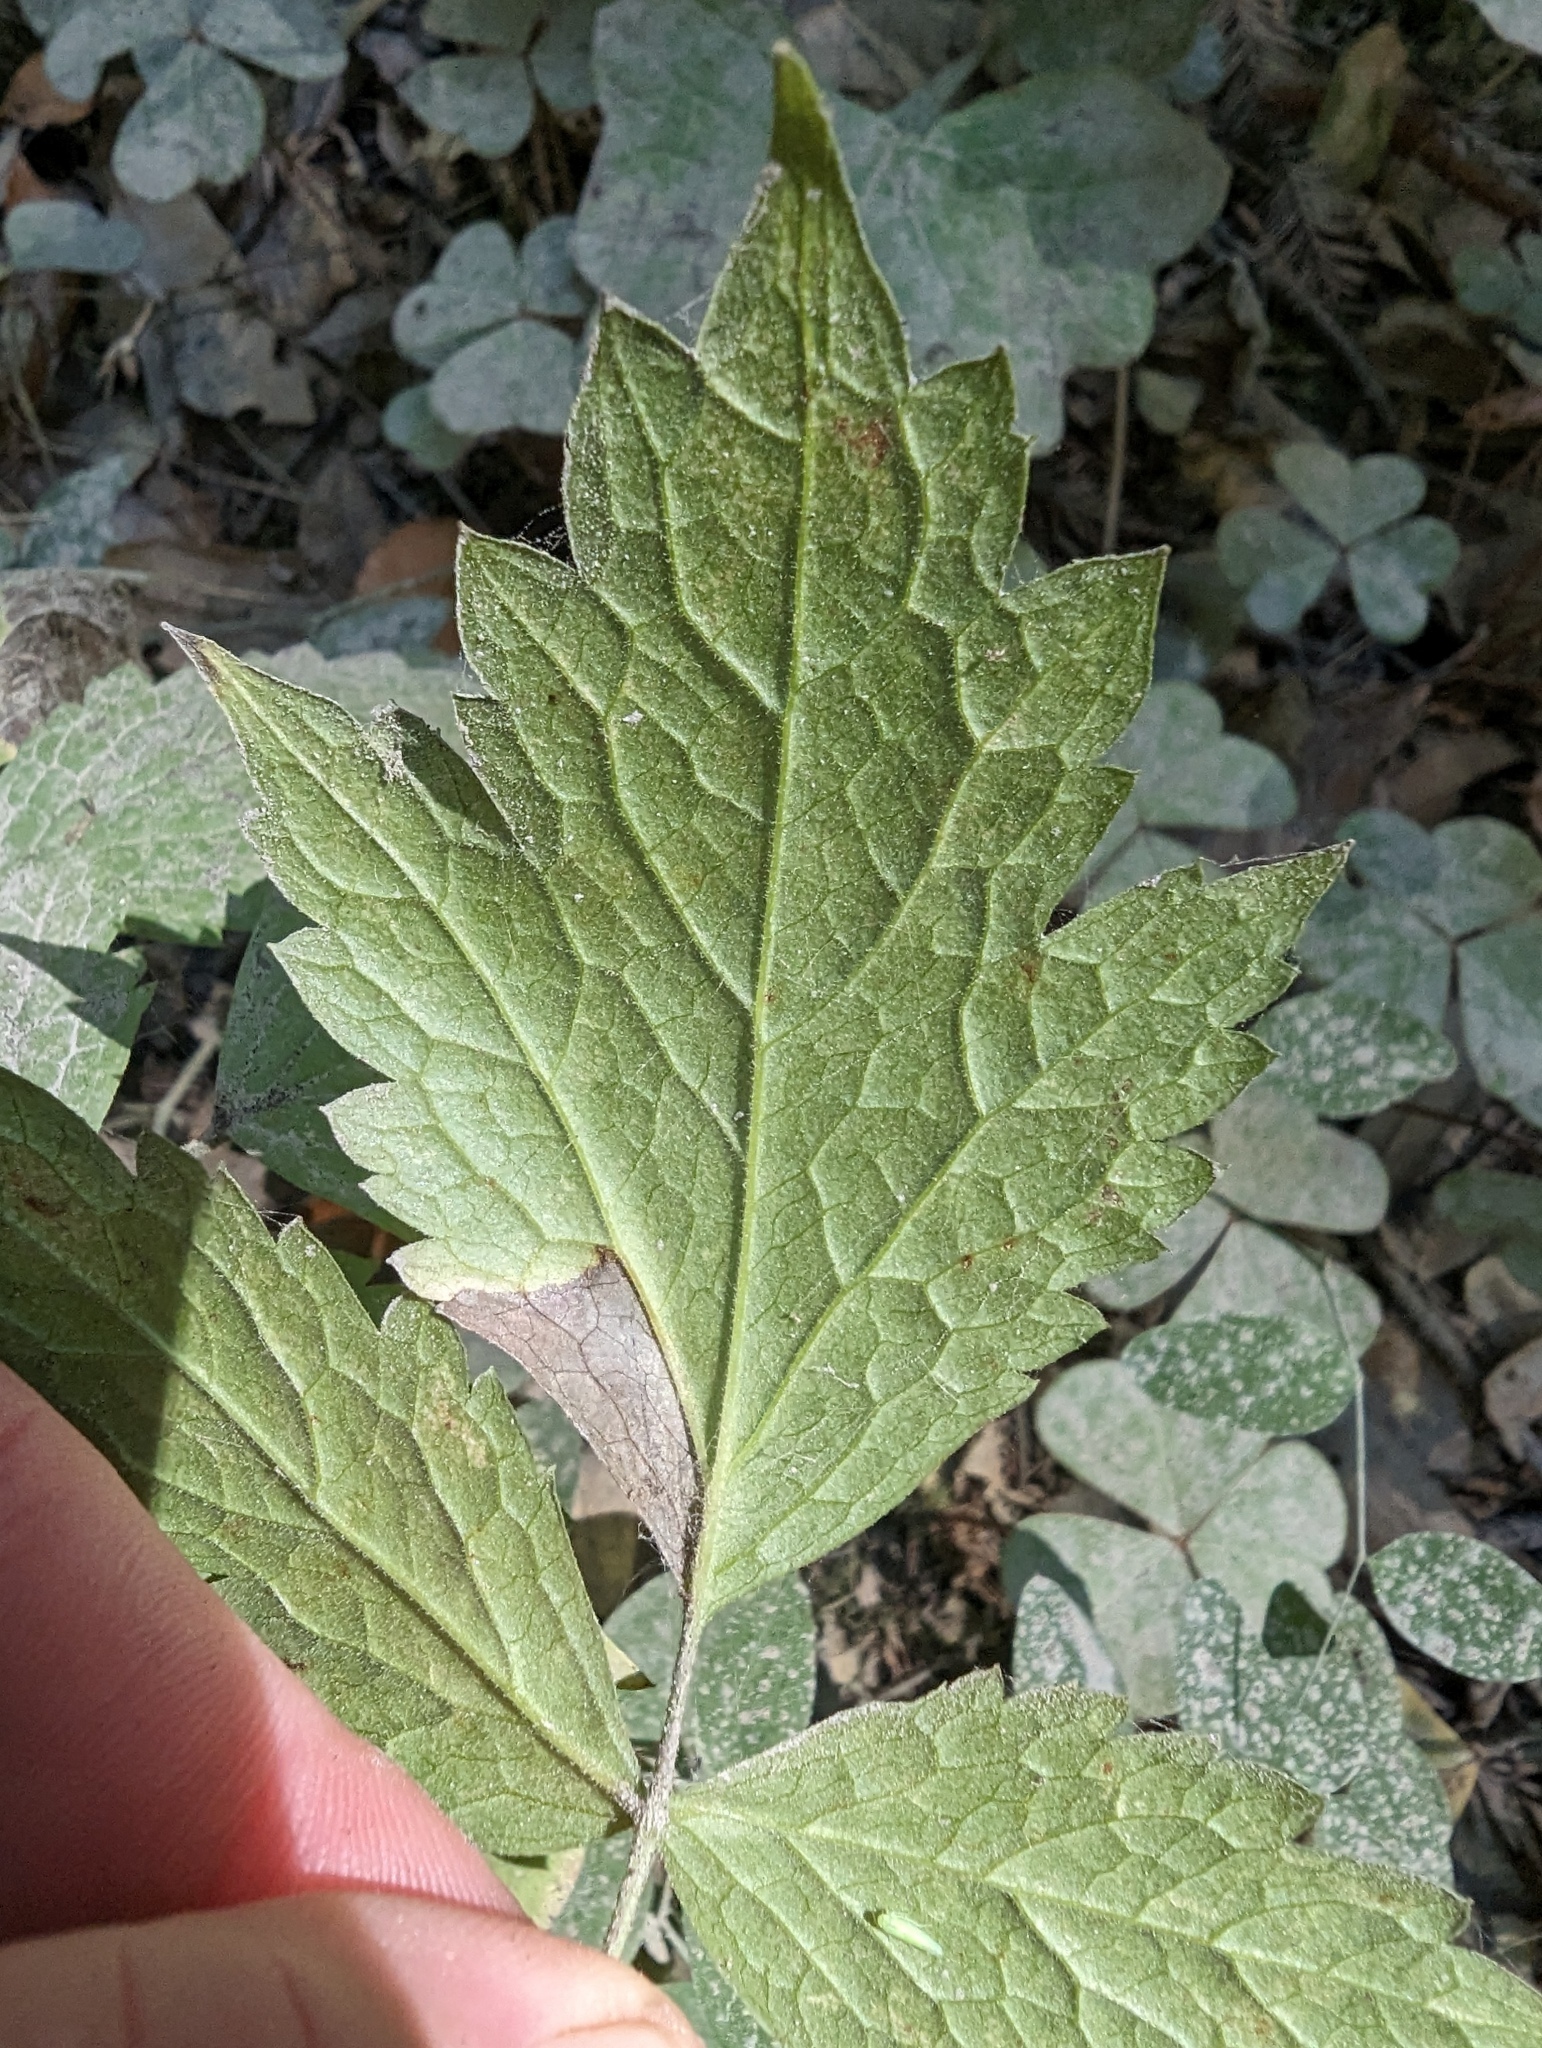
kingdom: Plantae
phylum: Tracheophyta
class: Magnoliopsida
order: Ranunculales
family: Ranunculaceae
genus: Actaea
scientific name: Actaea rubra
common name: Red baneberry
